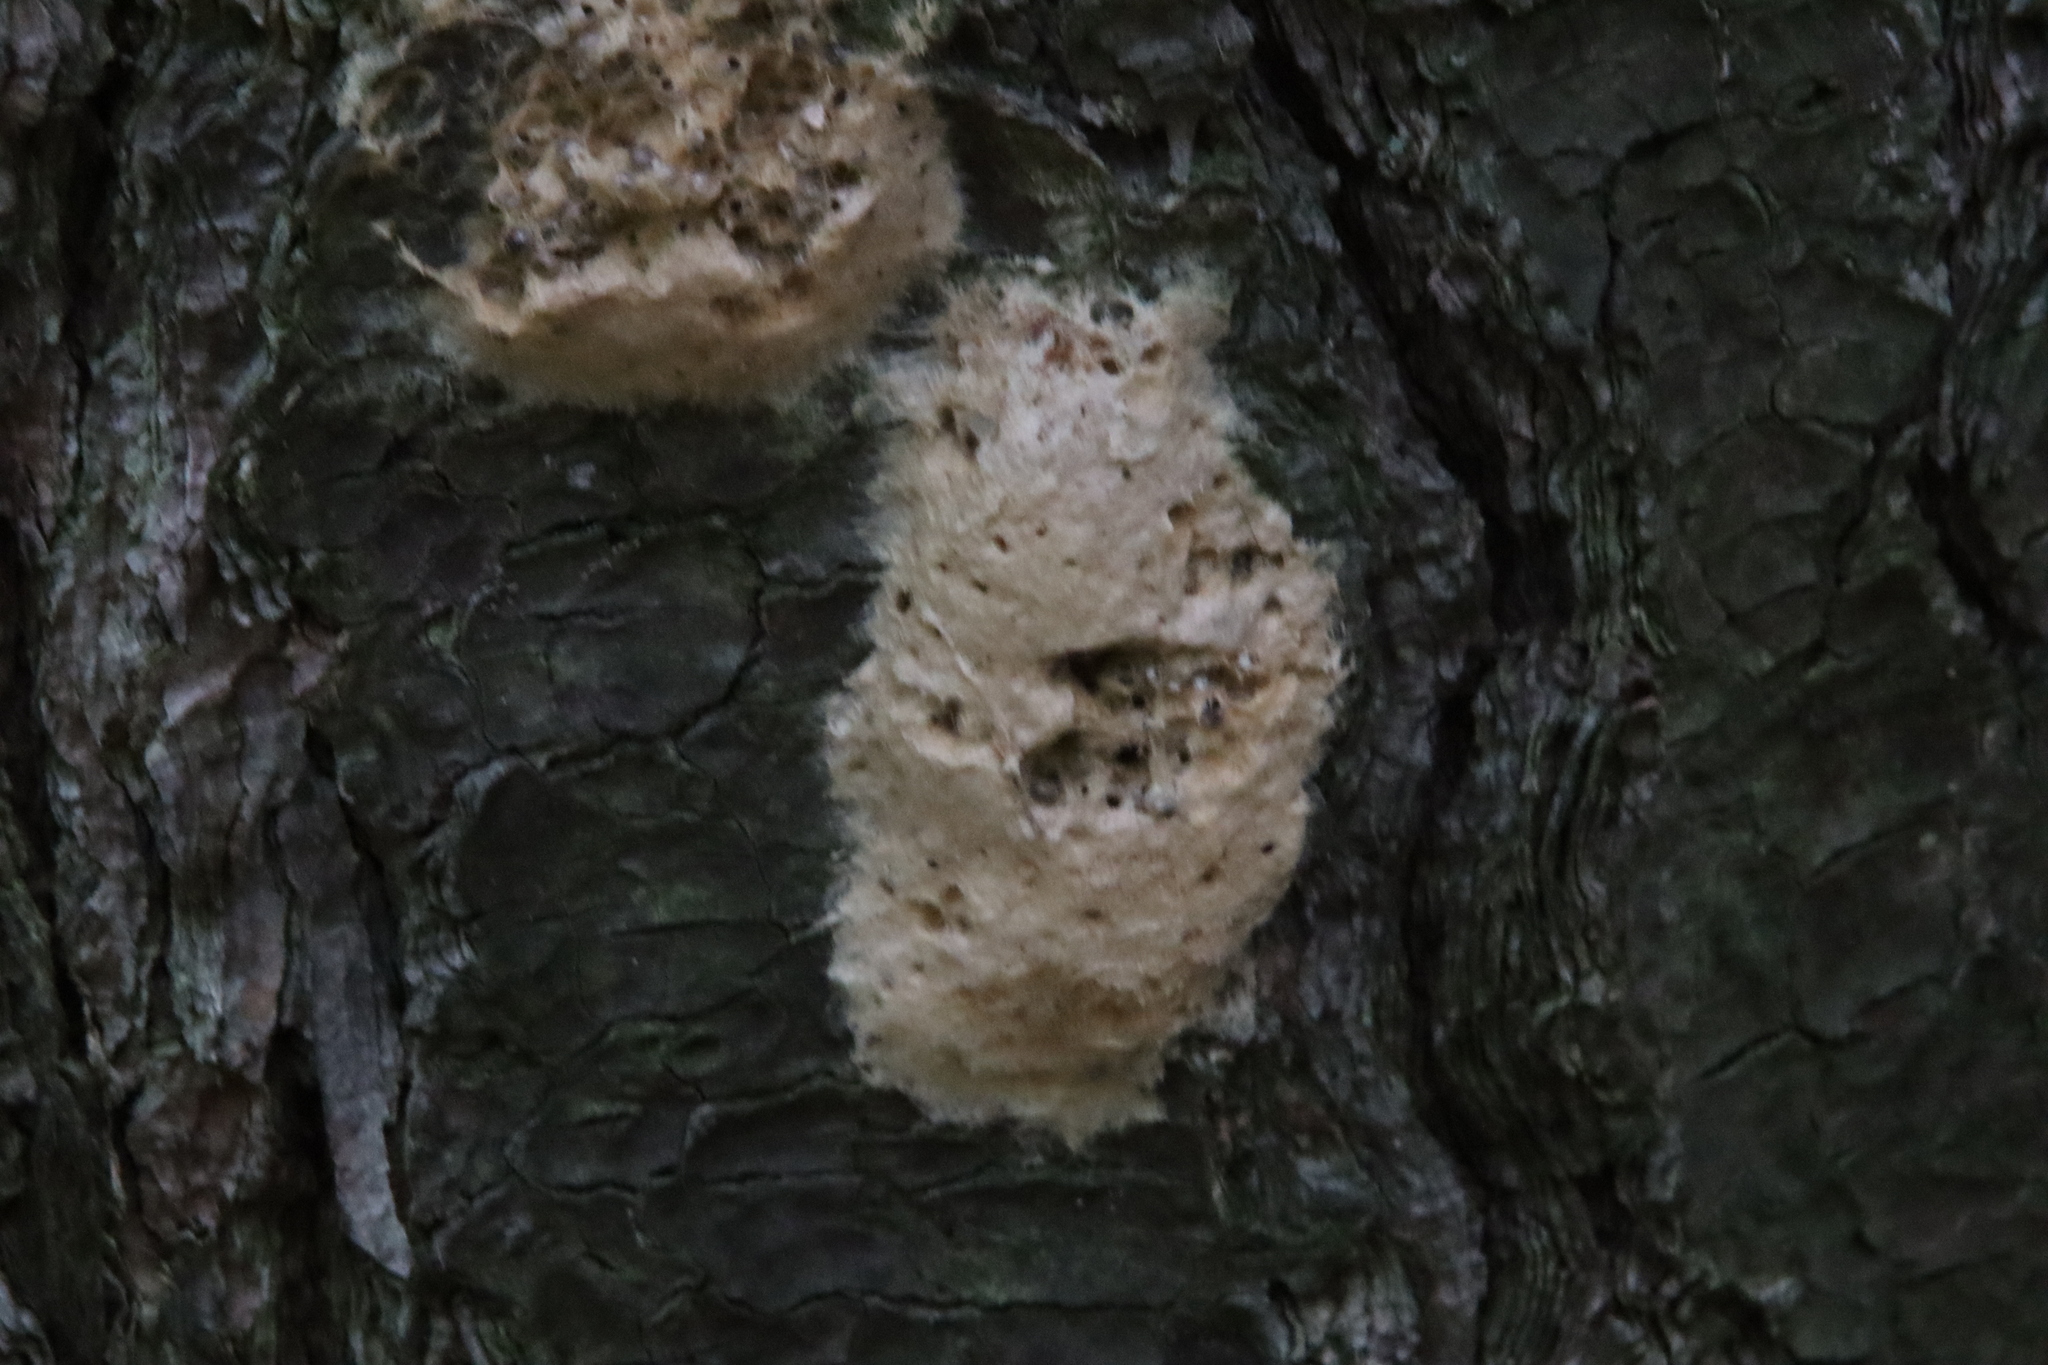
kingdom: Animalia
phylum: Arthropoda
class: Insecta
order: Lepidoptera
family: Erebidae
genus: Lymantria
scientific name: Lymantria dispar
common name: Gypsy moth
